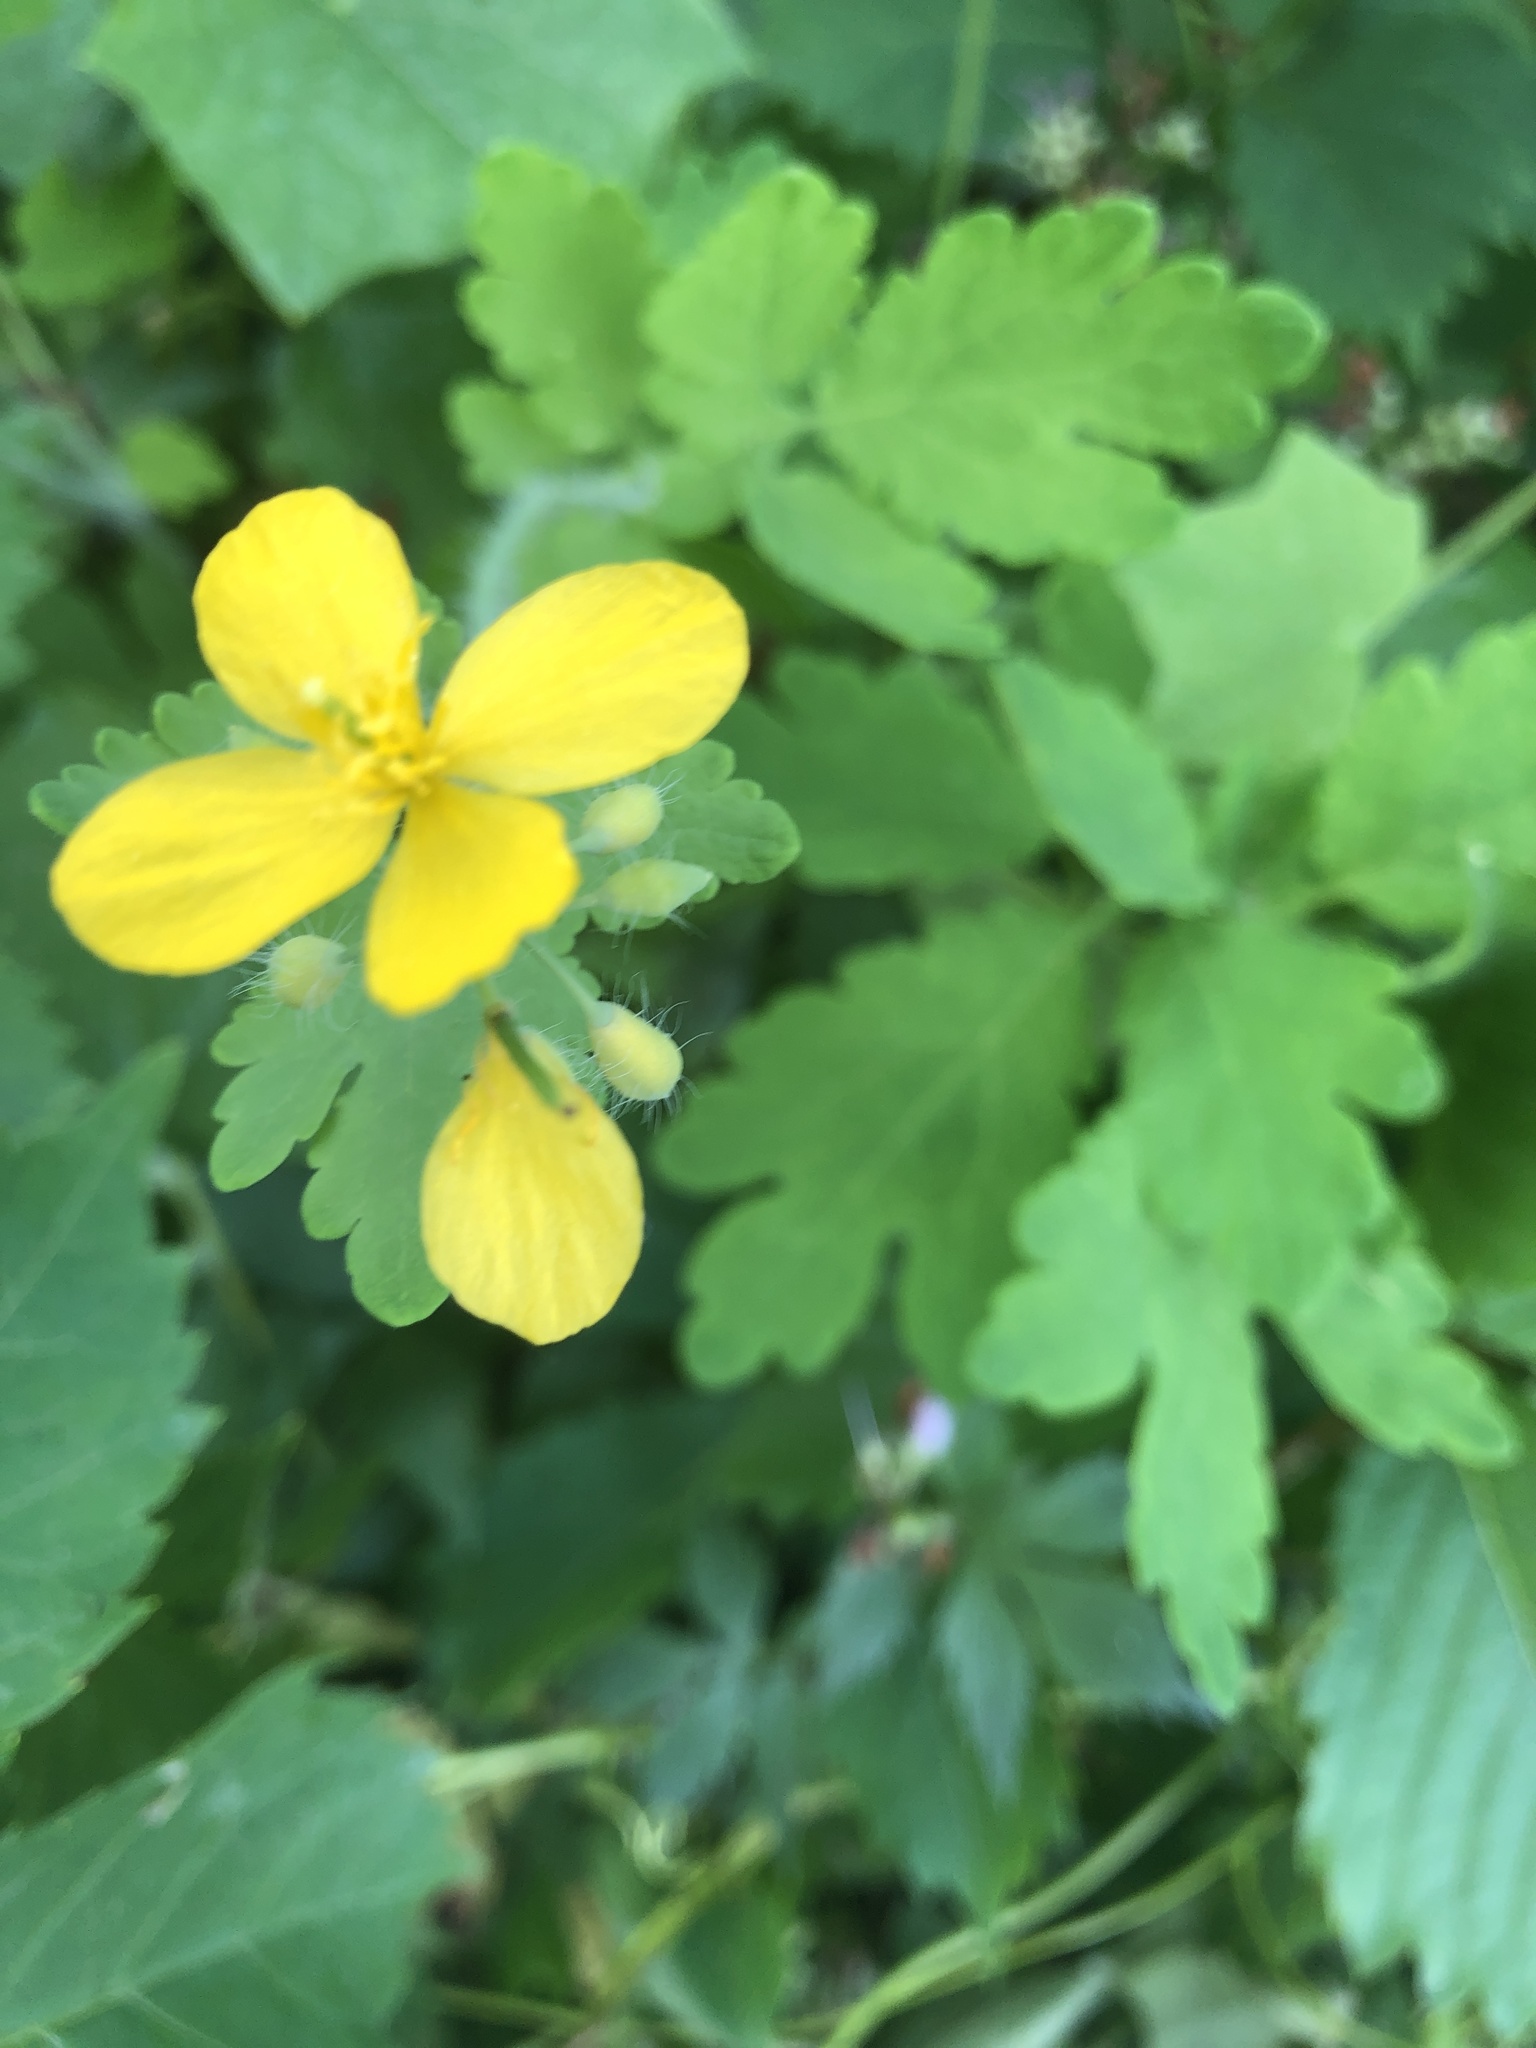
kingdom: Plantae
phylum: Tracheophyta
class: Magnoliopsida
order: Ranunculales
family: Papaveraceae
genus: Chelidonium
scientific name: Chelidonium majus
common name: Greater celandine
